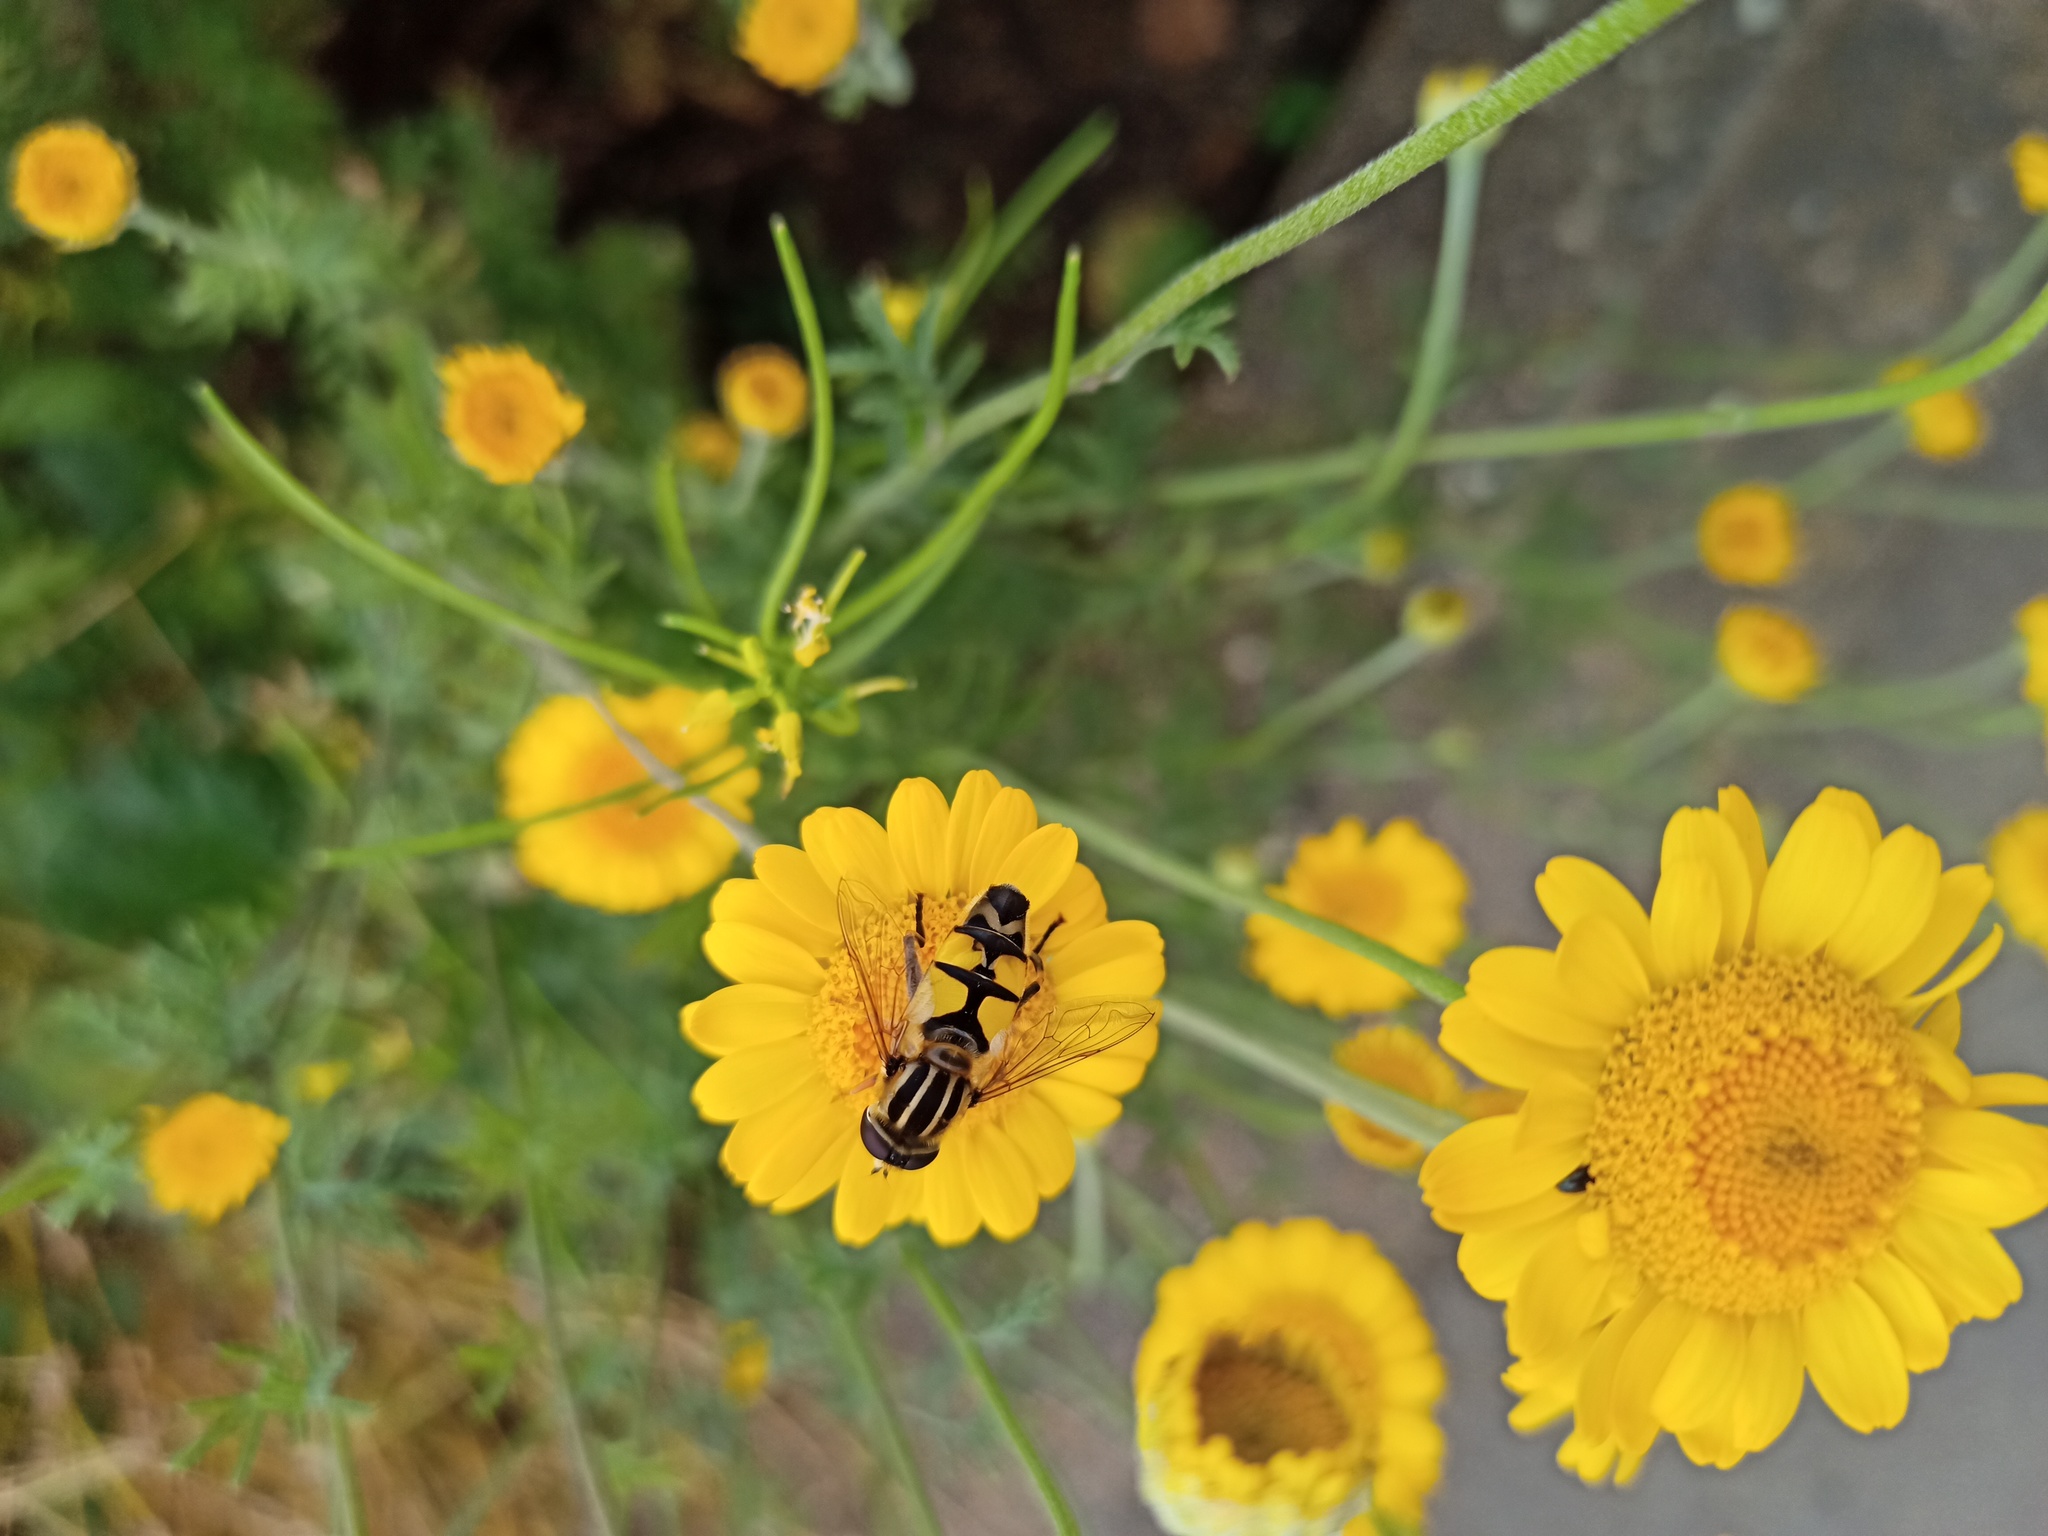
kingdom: Animalia
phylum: Arthropoda
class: Insecta
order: Diptera
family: Syrphidae
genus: Helophilus
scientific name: Helophilus trivittatus
